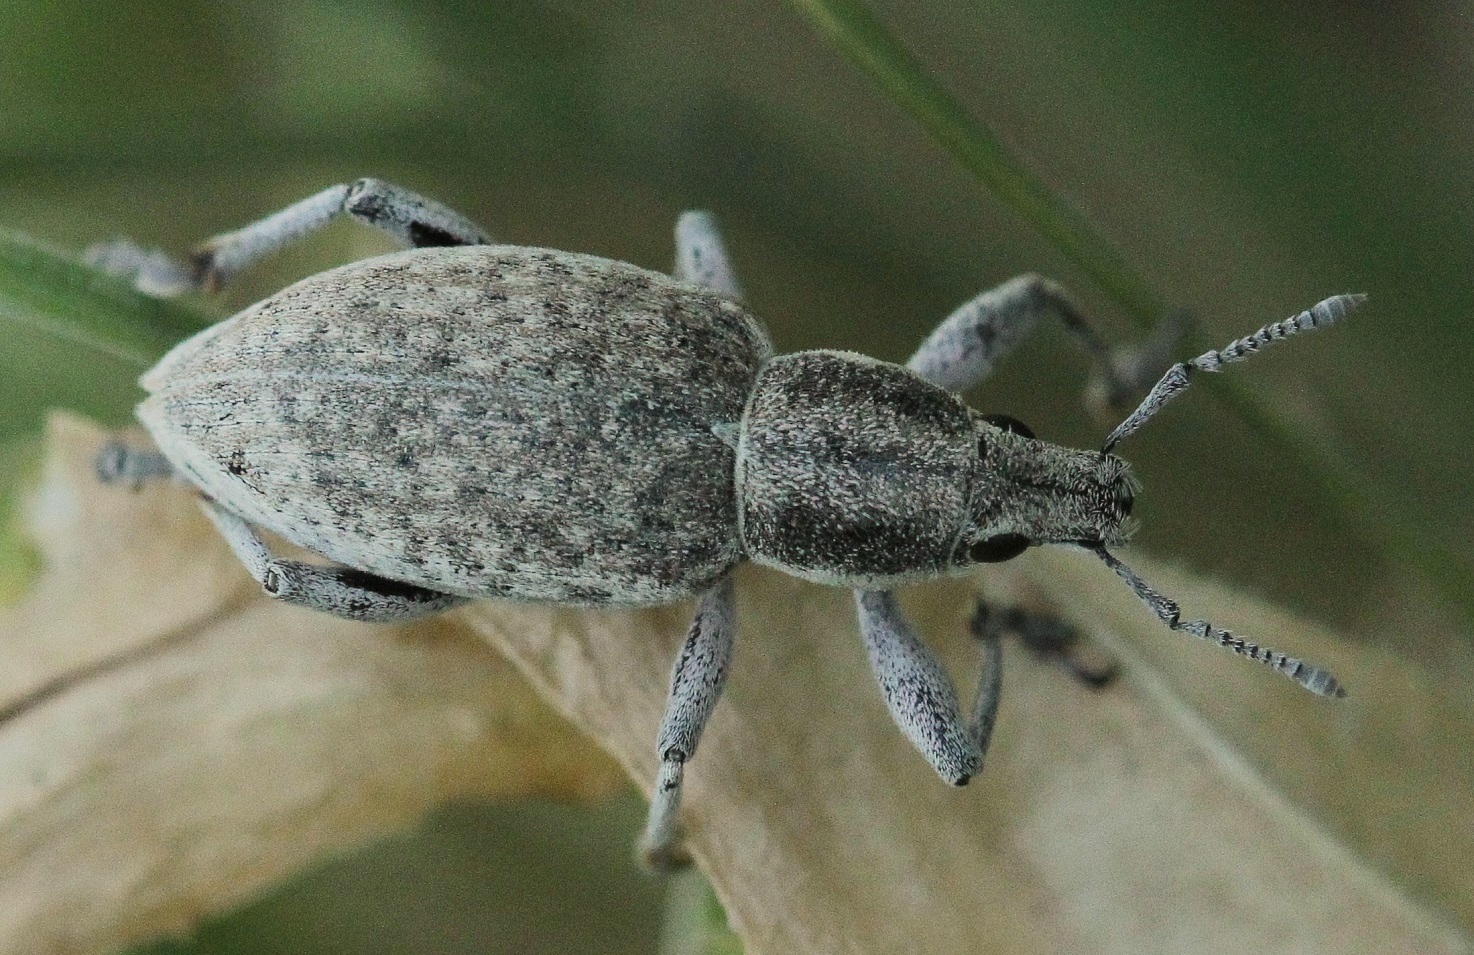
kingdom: Animalia
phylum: Arthropoda
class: Insecta
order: Coleoptera
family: Curculionidae
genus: Megamecus
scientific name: Megamecus variegatus
